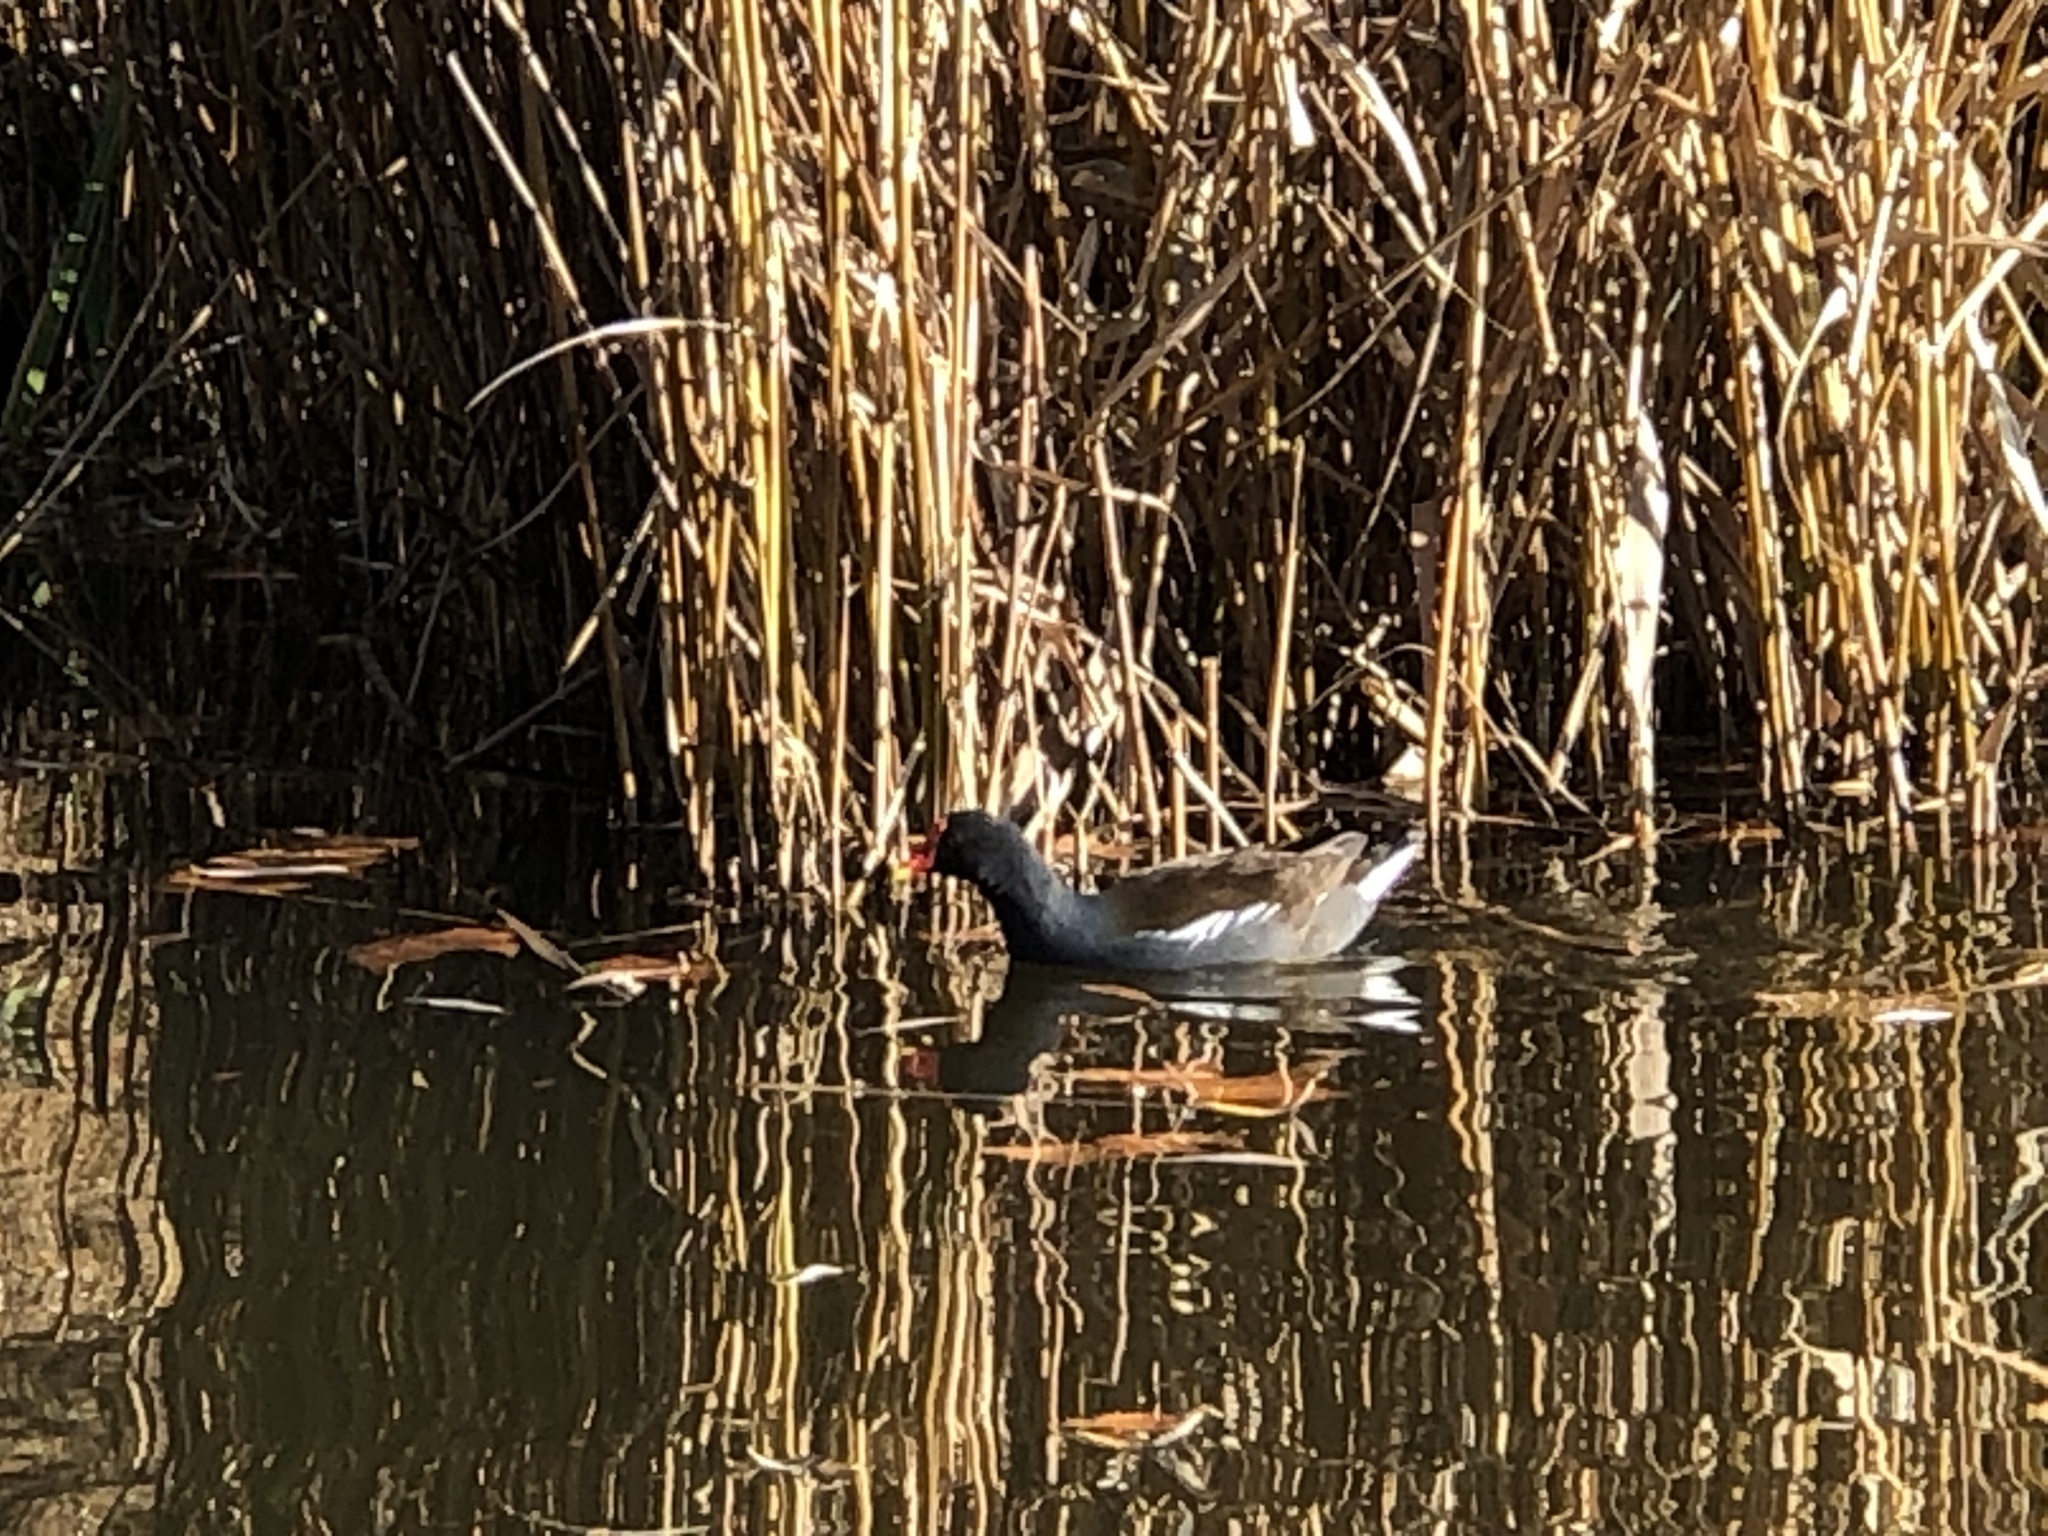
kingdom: Animalia
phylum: Chordata
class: Aves
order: Gruiformes
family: Rallidae
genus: Gallinula
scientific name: Gallinula chloropus
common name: Common moorhen
